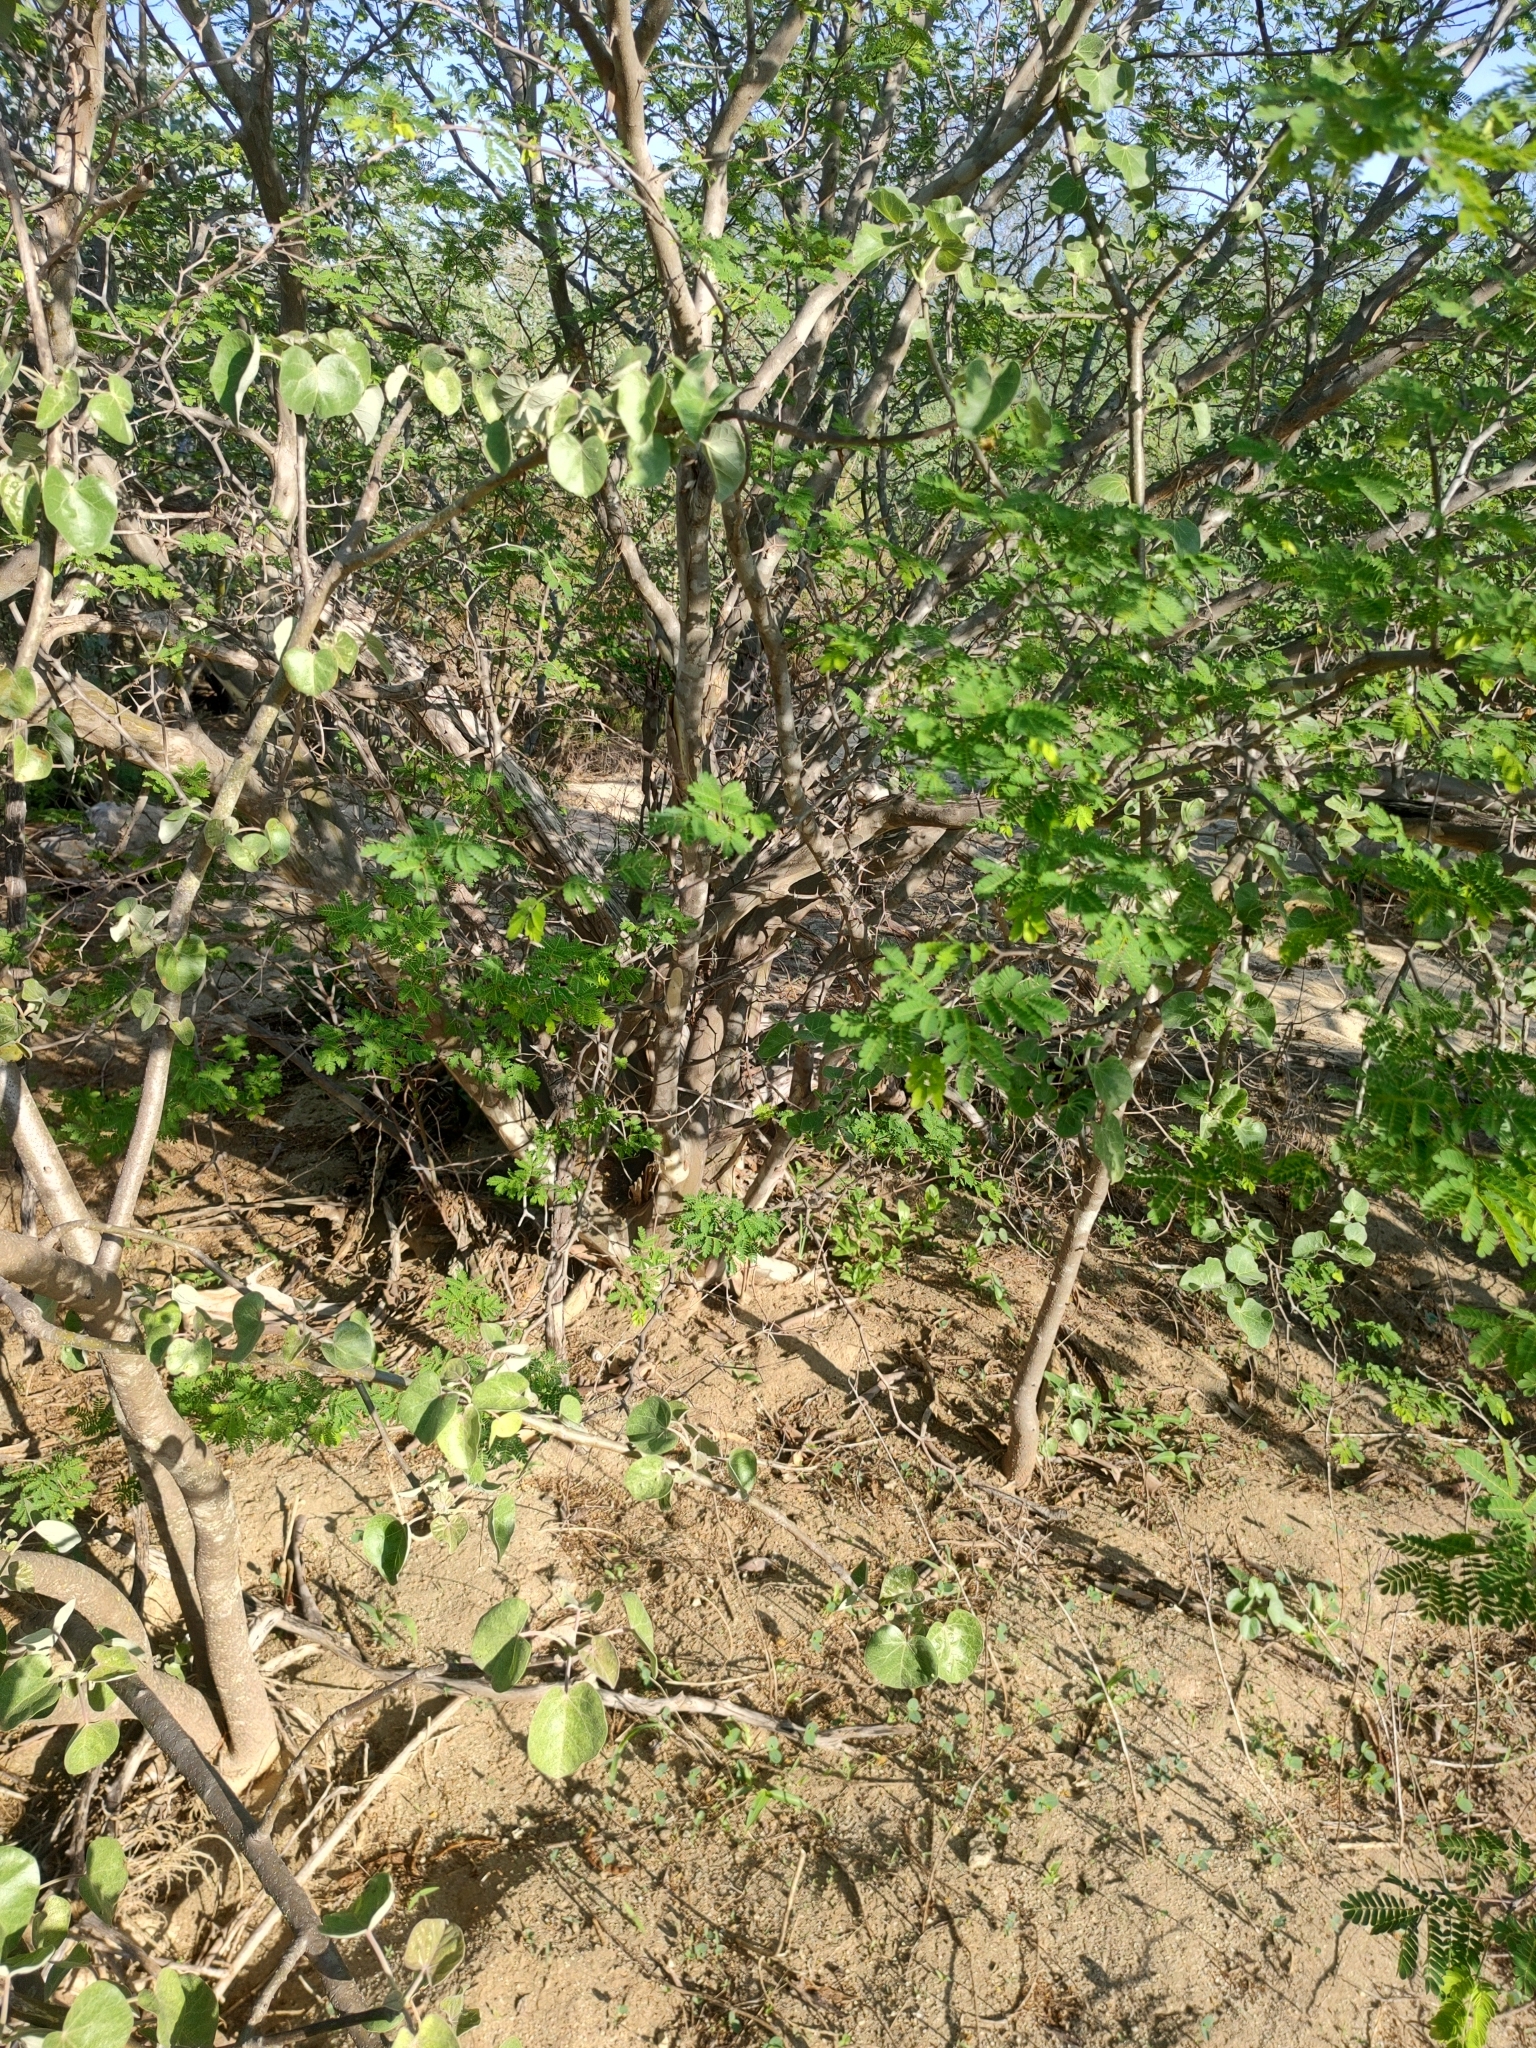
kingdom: Plantae
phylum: Tracheophyta
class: Magnoliopsida
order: Fabales
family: Fabaceae
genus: Chloroleucon
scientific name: Chloroleucon mangense
